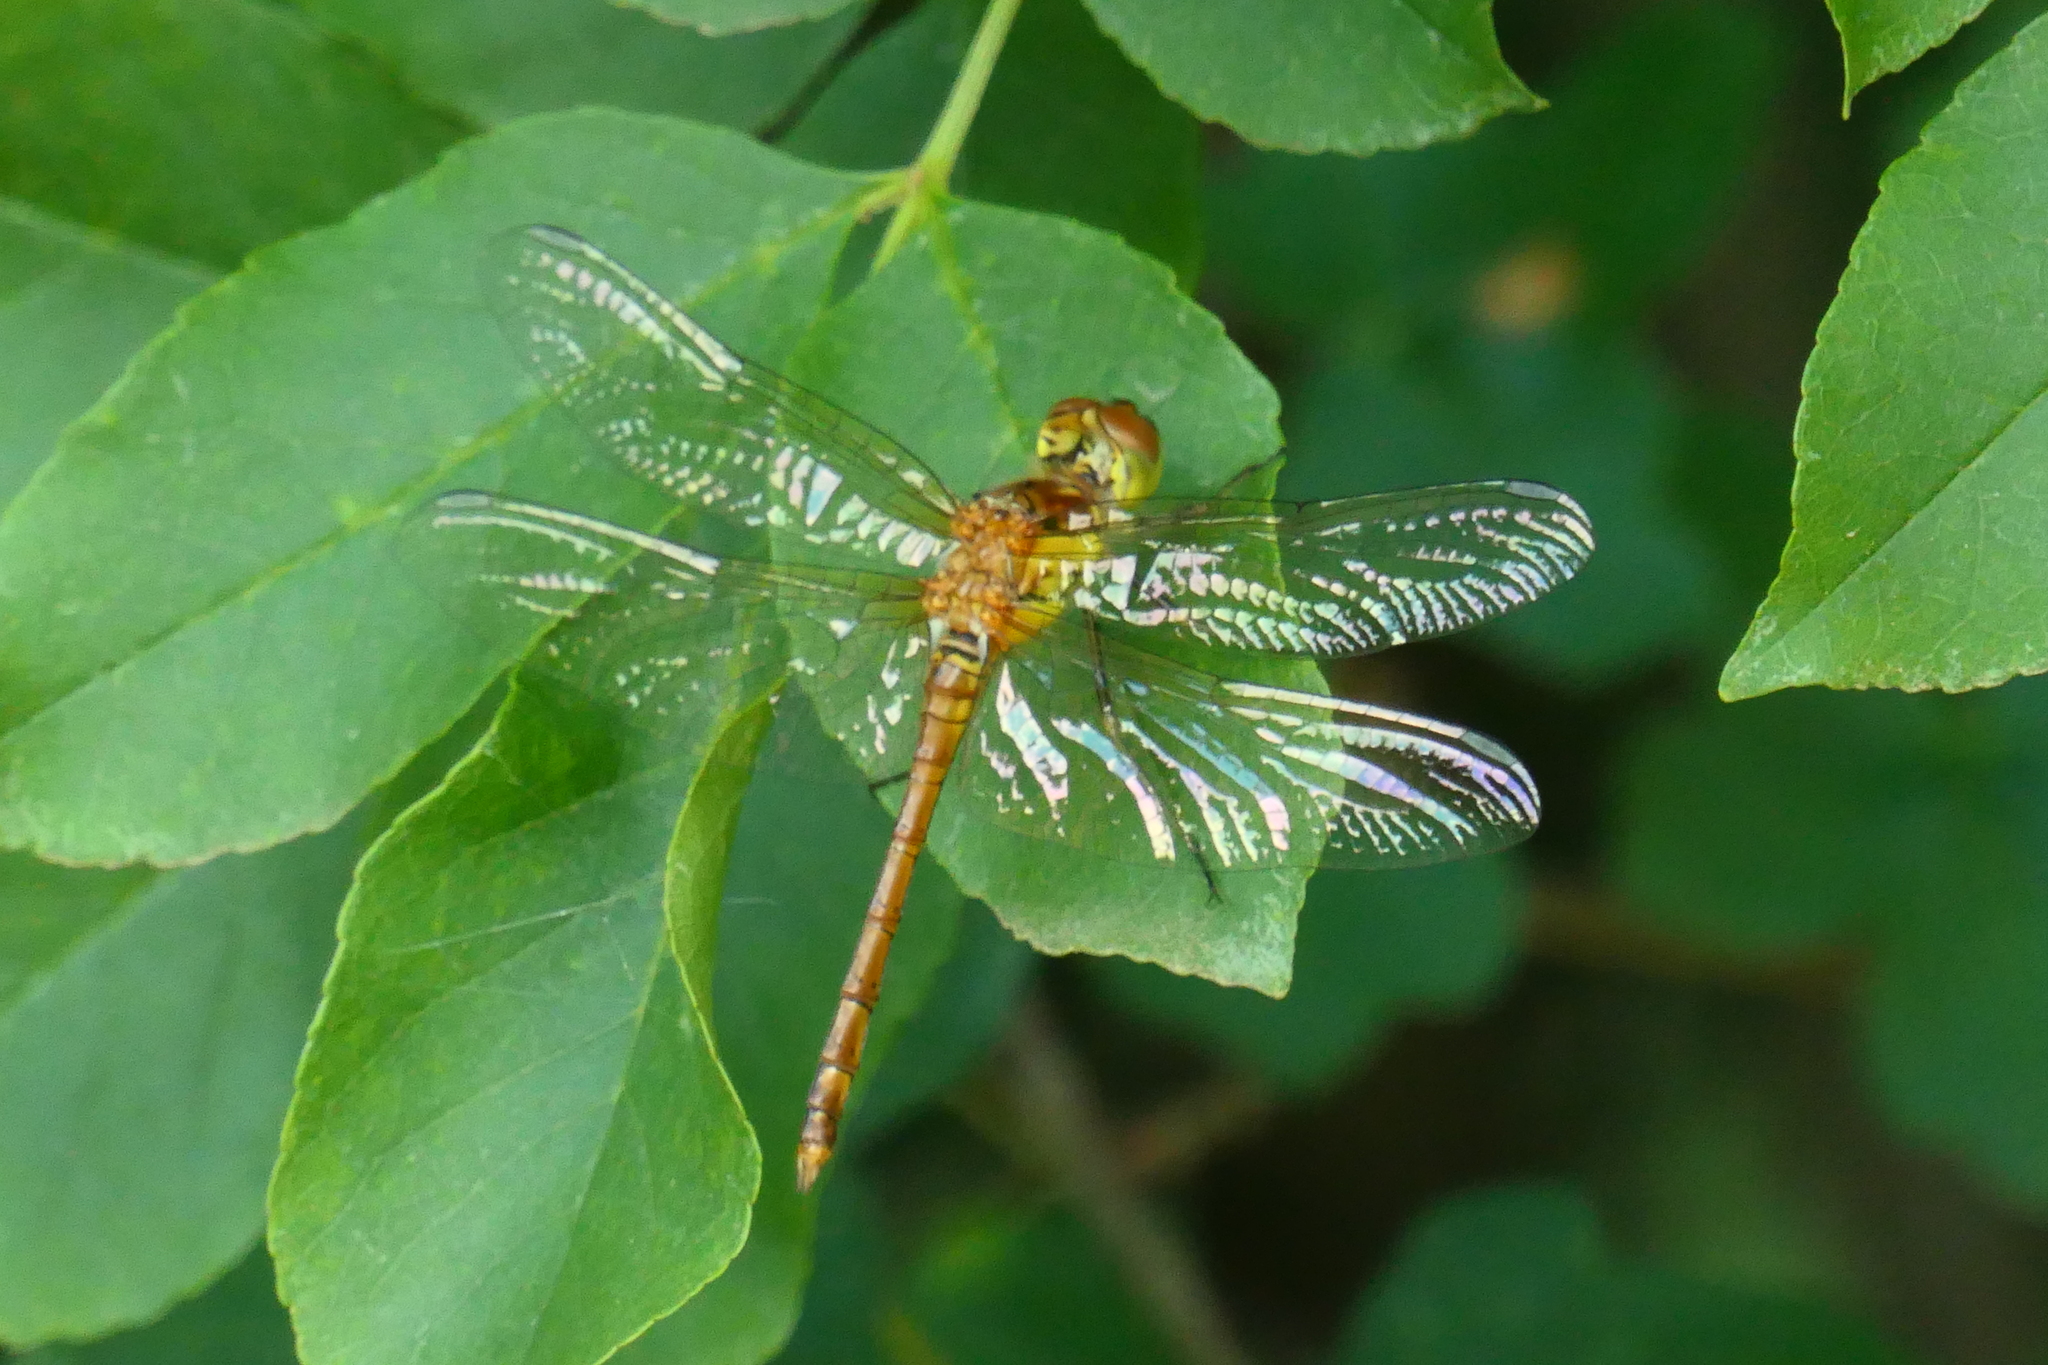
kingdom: Animalia
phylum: Arthropoda
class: Insecta
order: Odonata
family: Libellulidae
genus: Sympetrum
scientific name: Sympetrum striolatum
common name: Common darter
